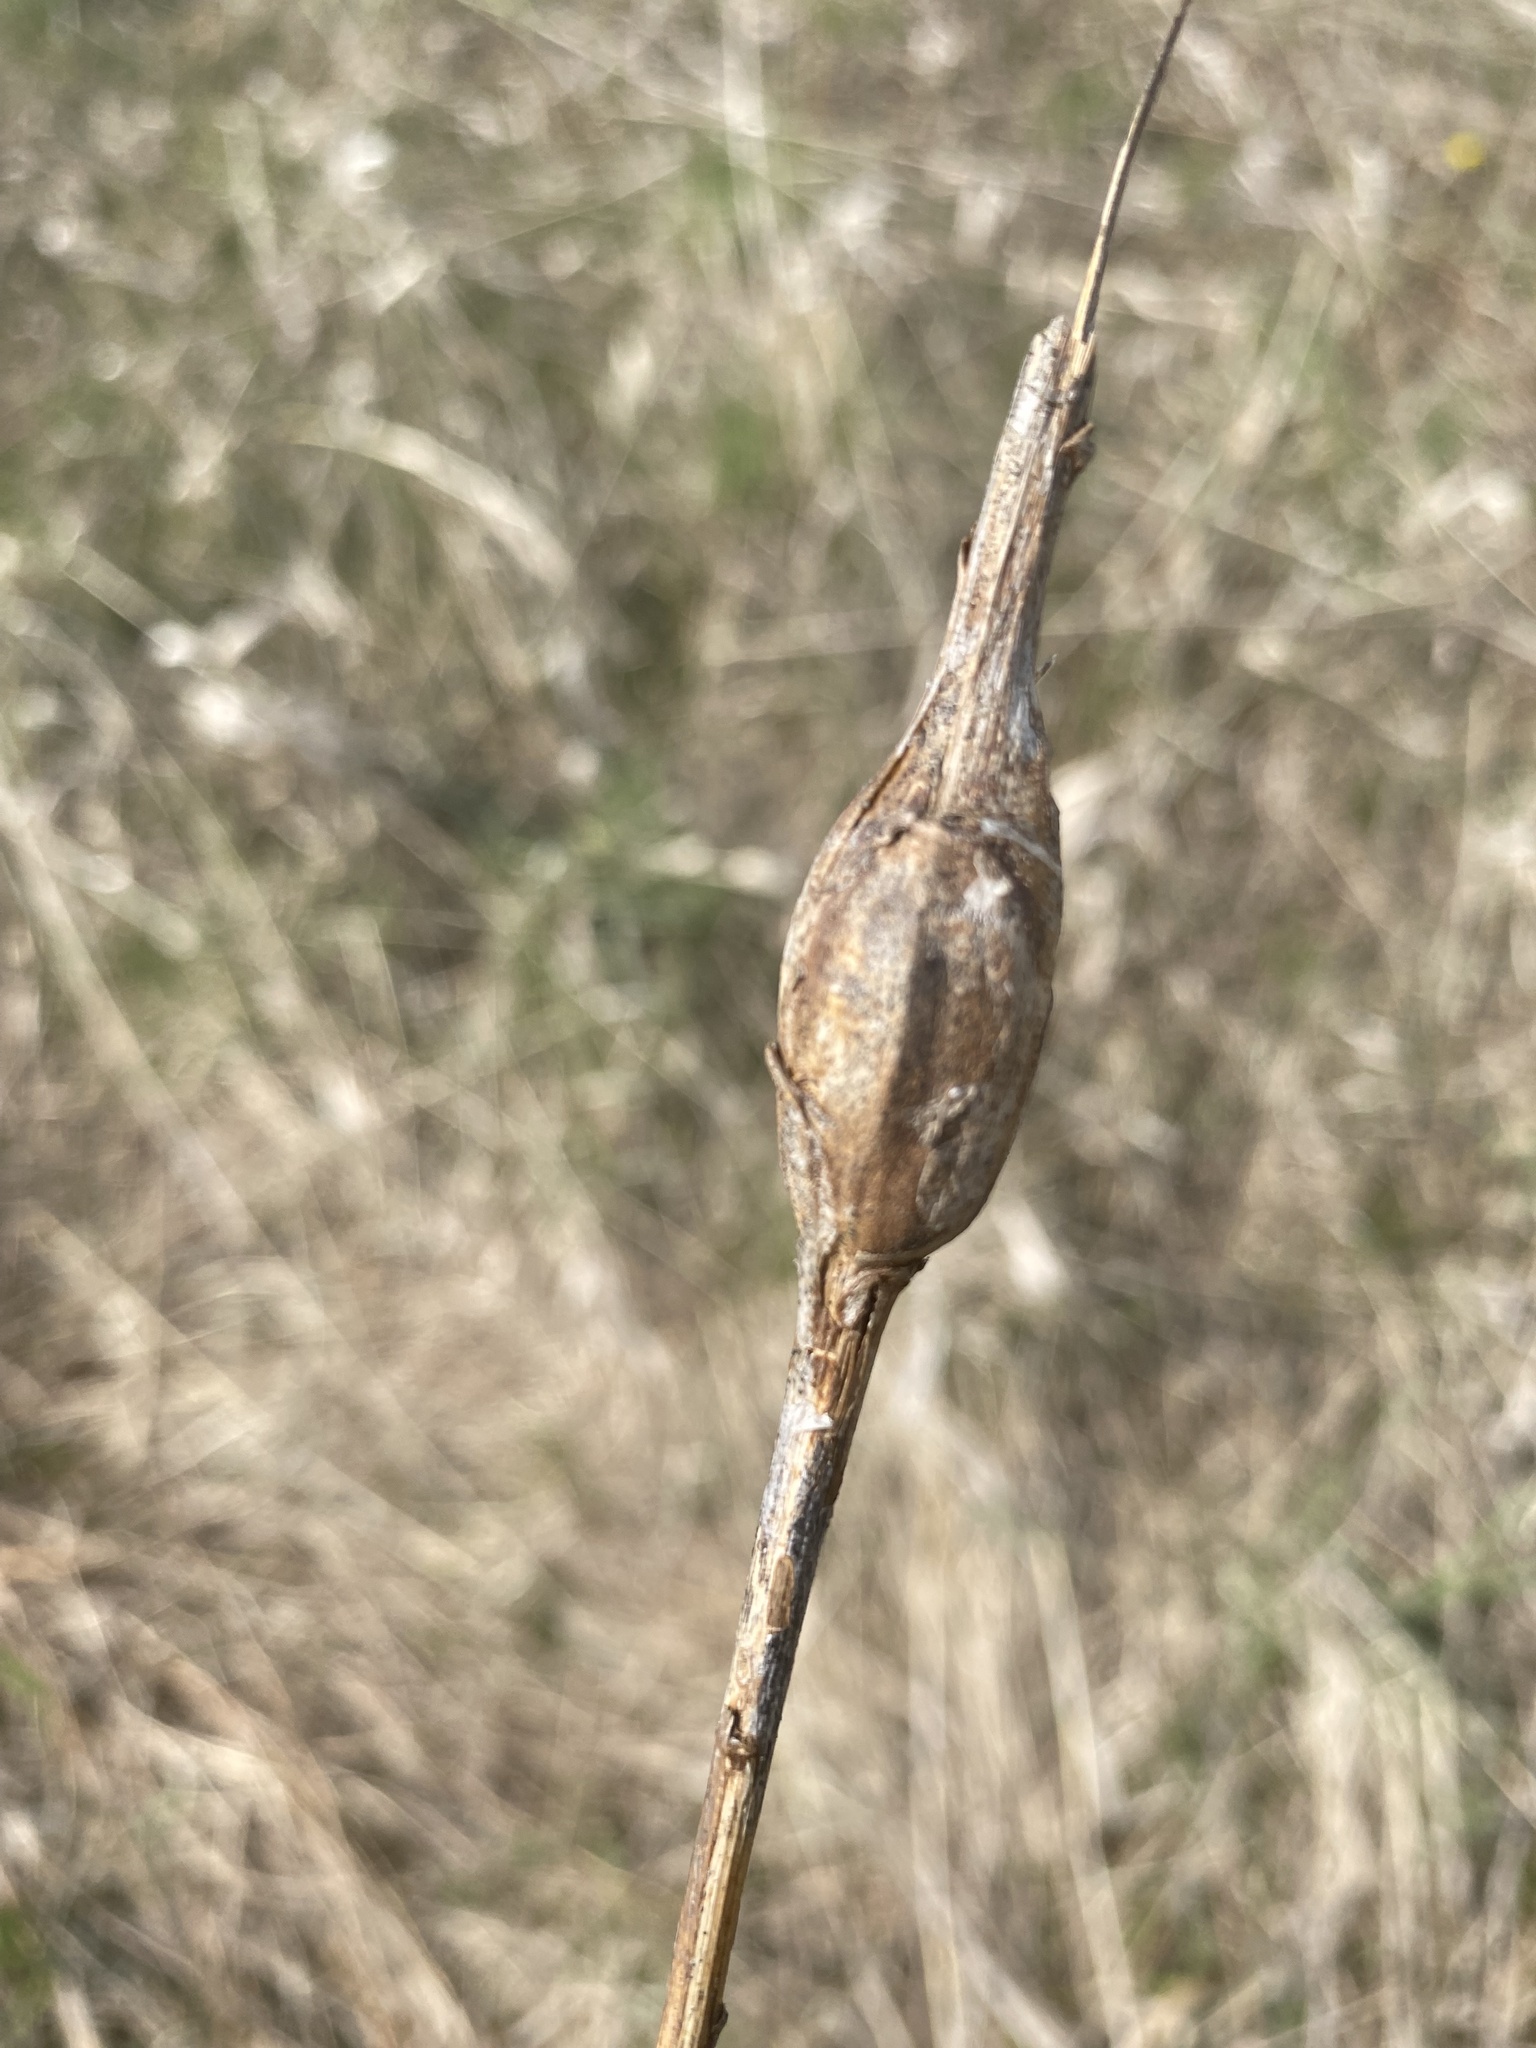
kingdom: Animalia
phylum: Arthropoda
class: Insecta
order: Lepidoptera
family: Gelechiidae
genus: Gnorimoschema
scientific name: Gnorimoschema gallaesolidaginis
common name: Goldenrod elliptical-gall moth
